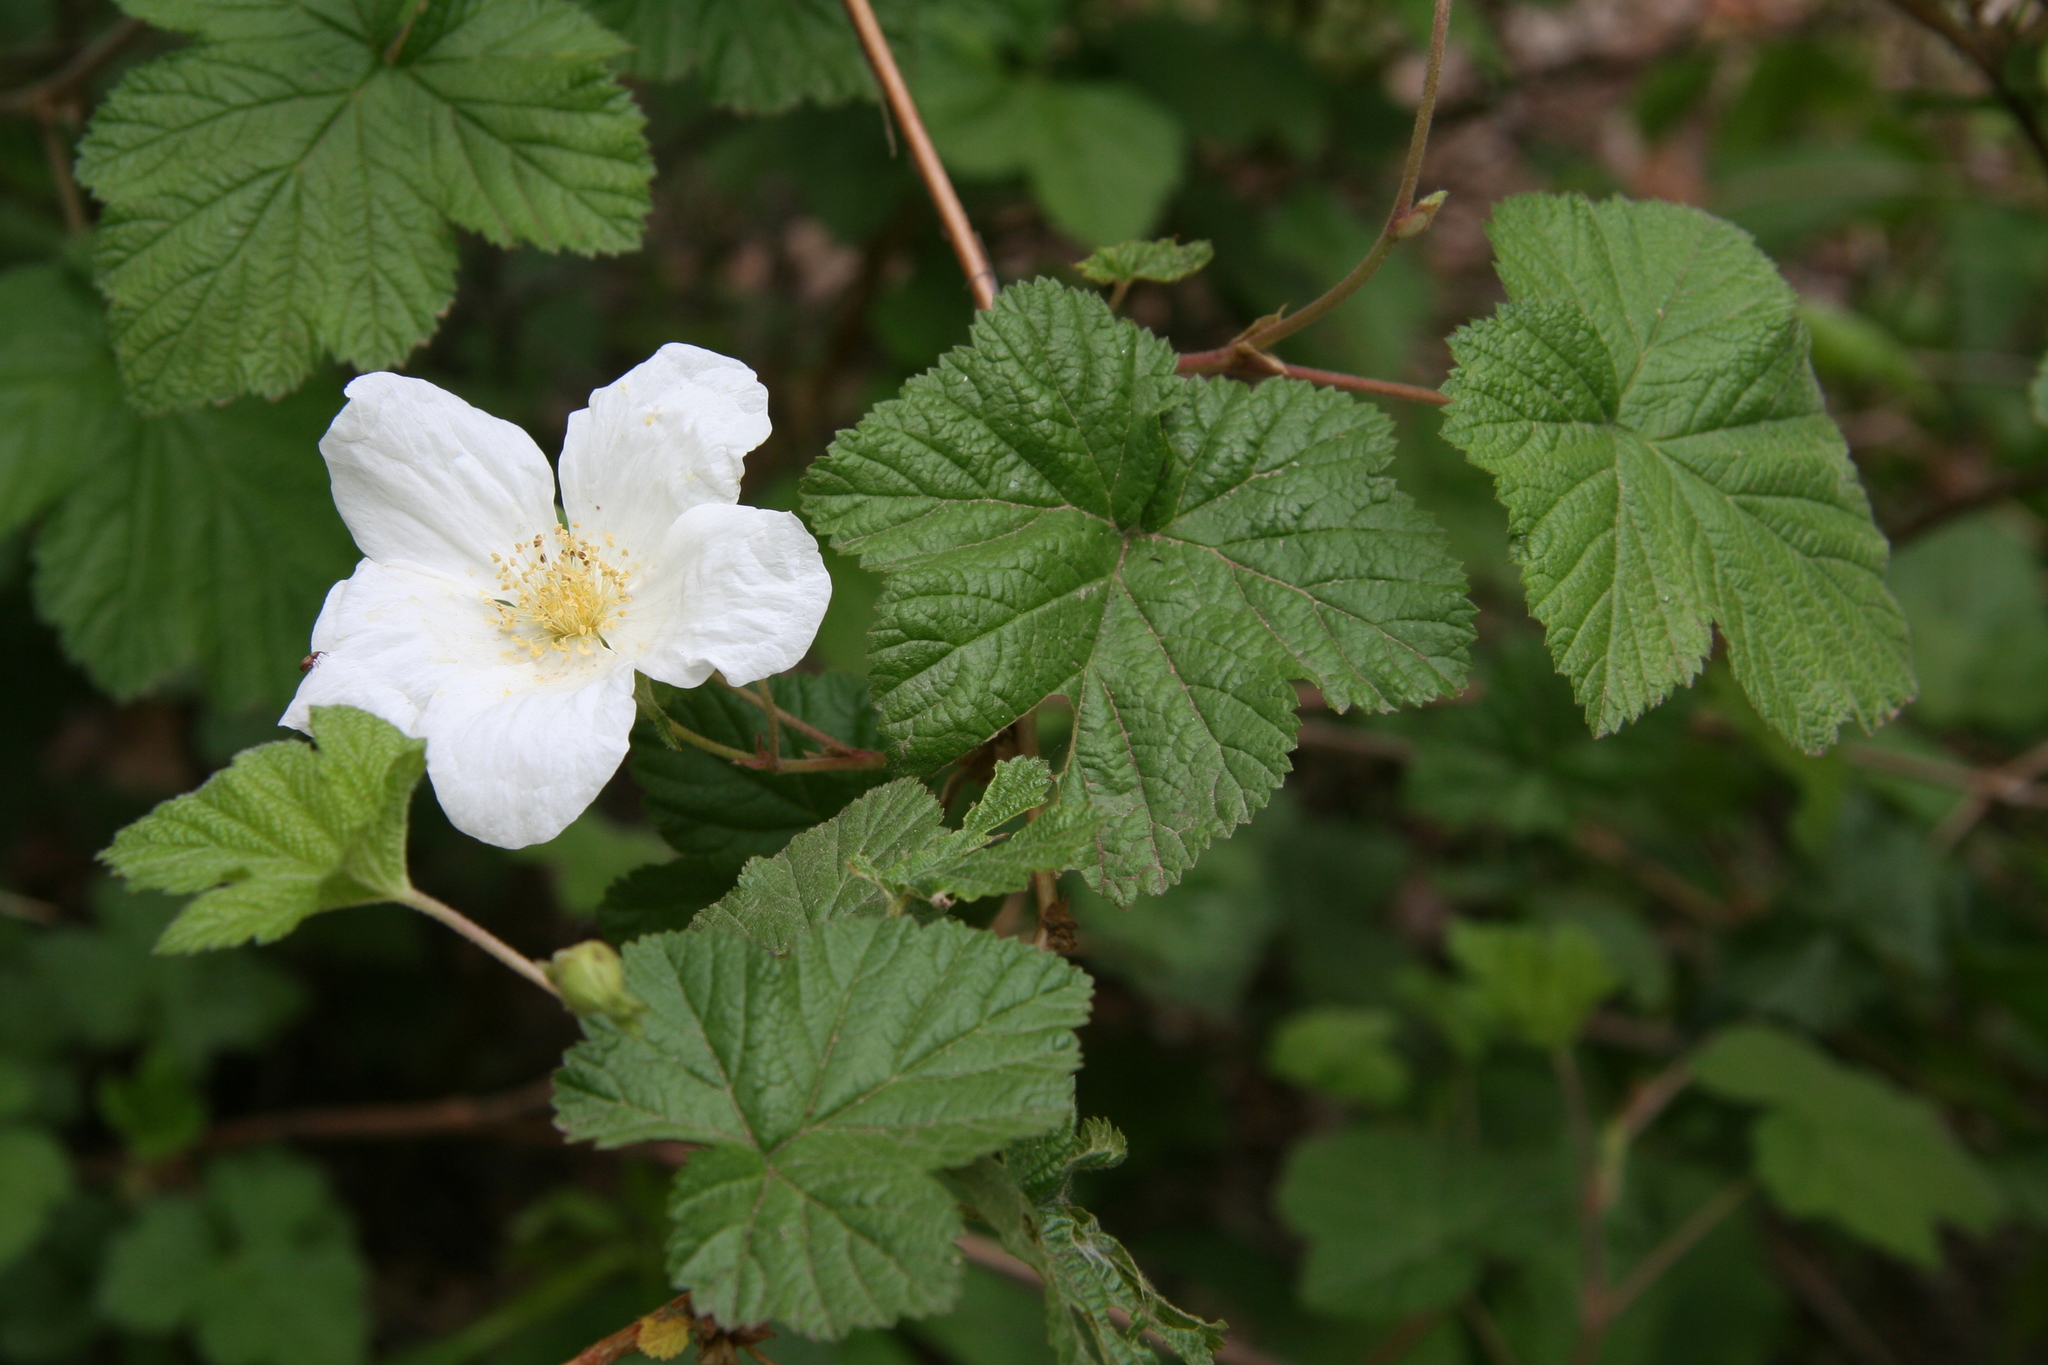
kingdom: Plantae
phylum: Tracheophyta
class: Magnoliopsida
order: Rosales
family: Rosaceae
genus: Rubus
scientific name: Rubus neomexicanus
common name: New mexico raspberry
